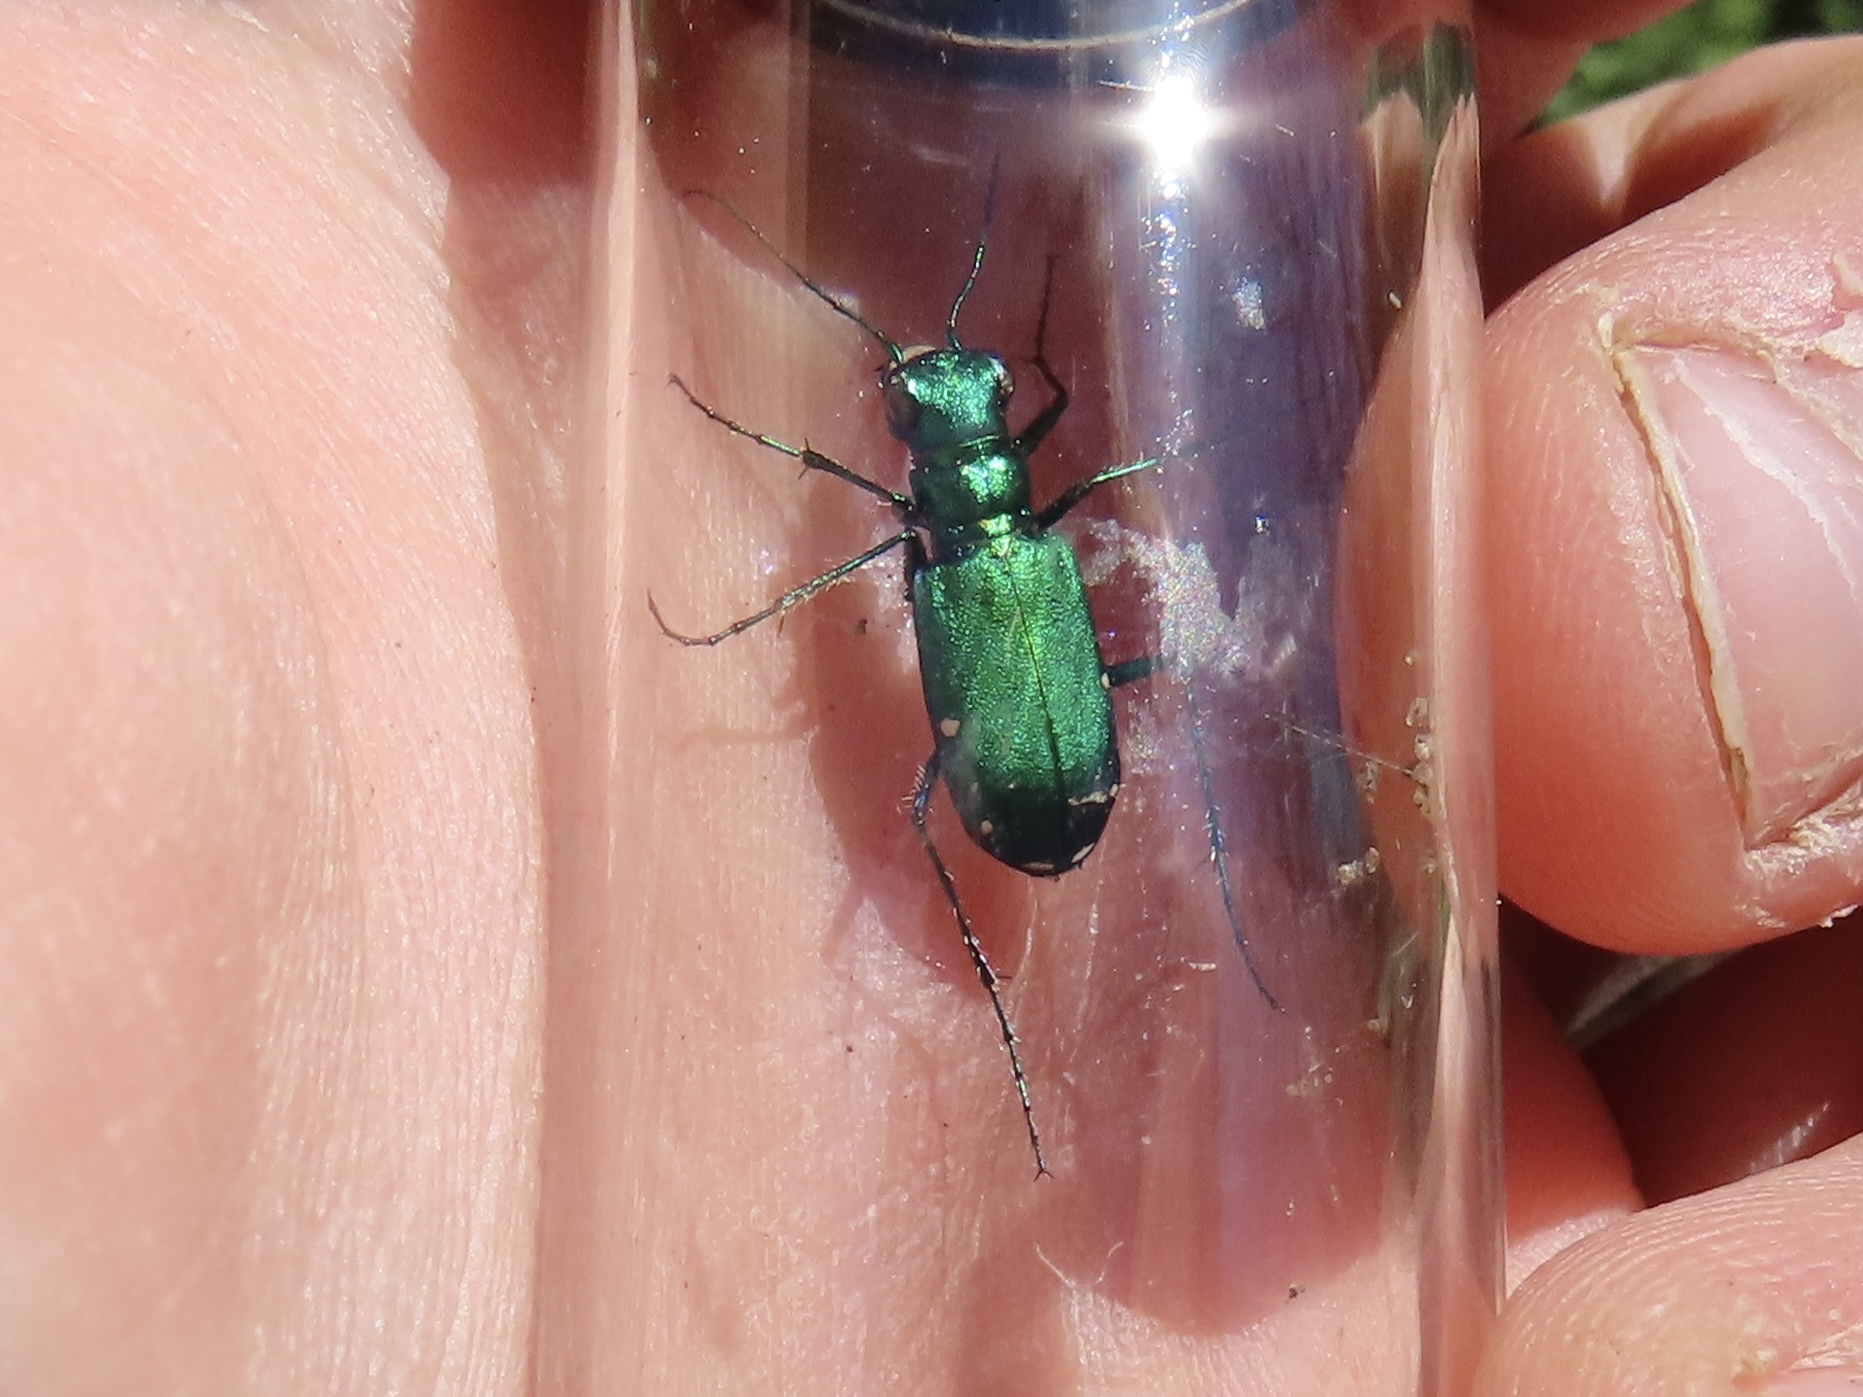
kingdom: Animalia
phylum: Arthropoda
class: Insecta
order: Coleoptera
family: Carabidae
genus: Cicindela
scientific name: Cicindela sexguttata
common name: Six-spotted tiger beetle
